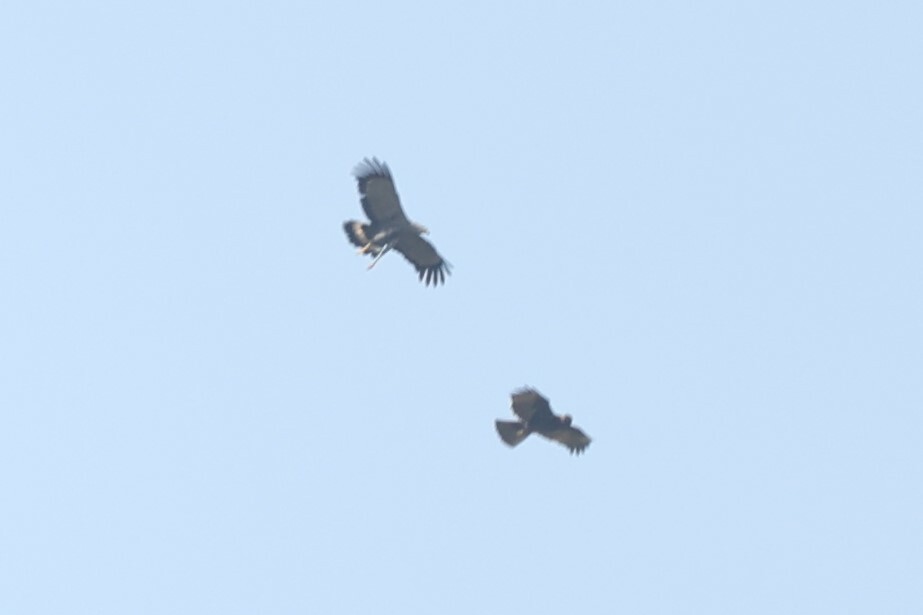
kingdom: Animalia
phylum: Chordata
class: Aves
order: Accipitriformes
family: Accipitridae
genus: Polyboroides
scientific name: Polyboroides typus
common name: African harrier-hawk
